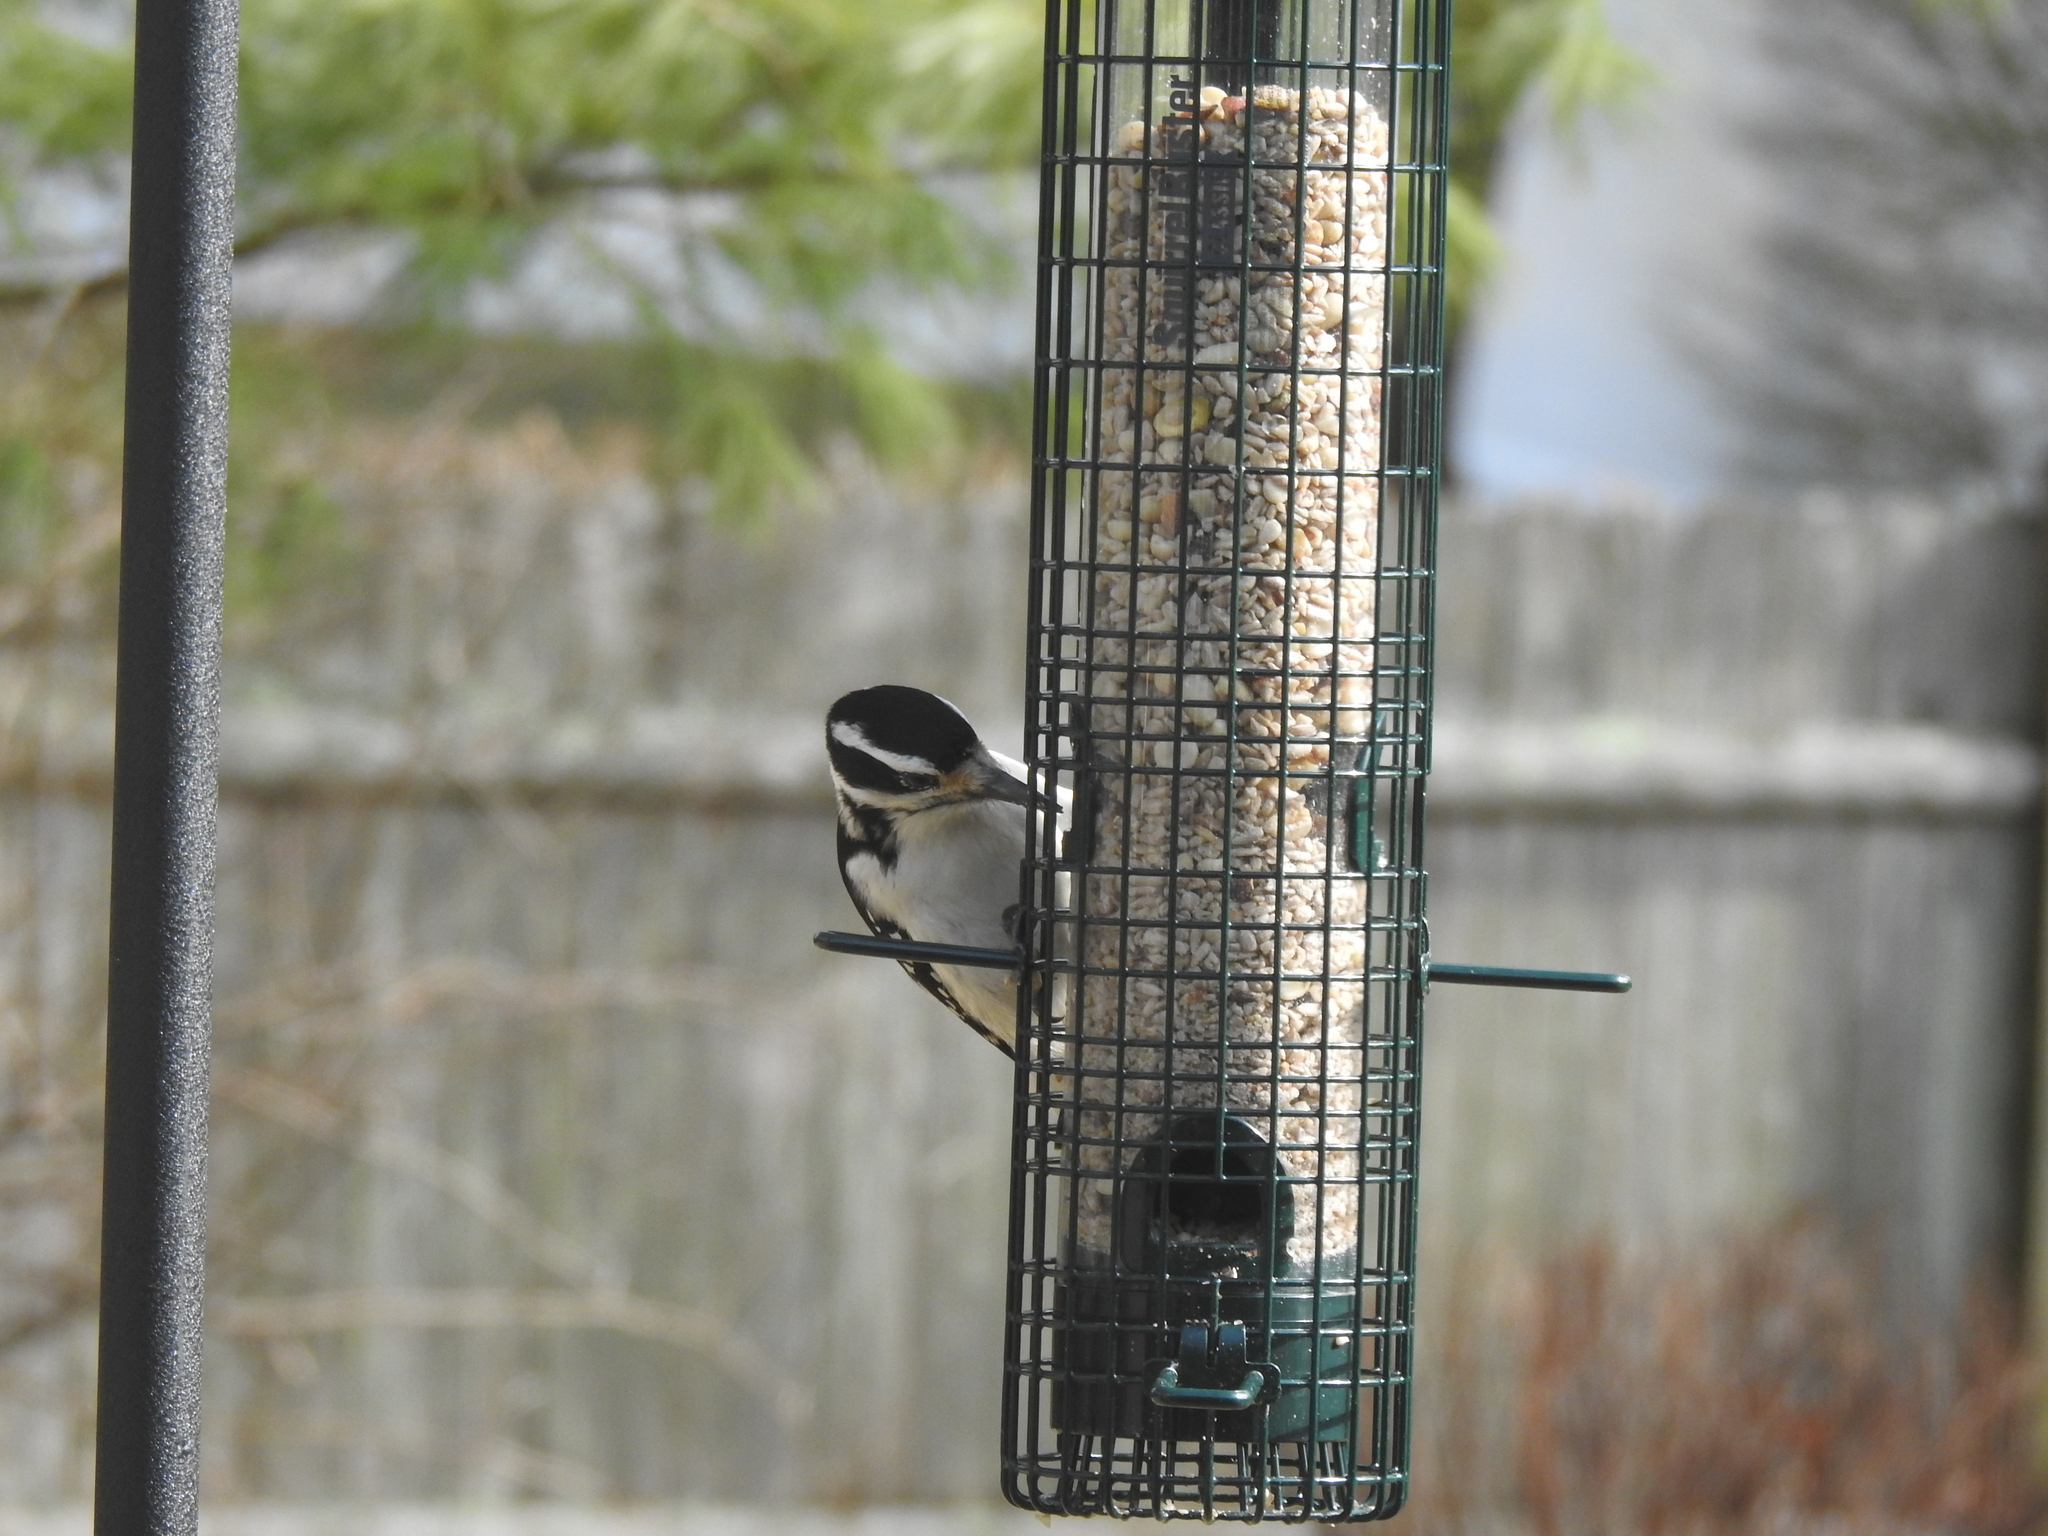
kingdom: Animalia
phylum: Chordata
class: Aves
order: Piciformes
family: Picidae
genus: Leuconotopicus
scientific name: Leuconotopicus villosus
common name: Hairy woodpecker
